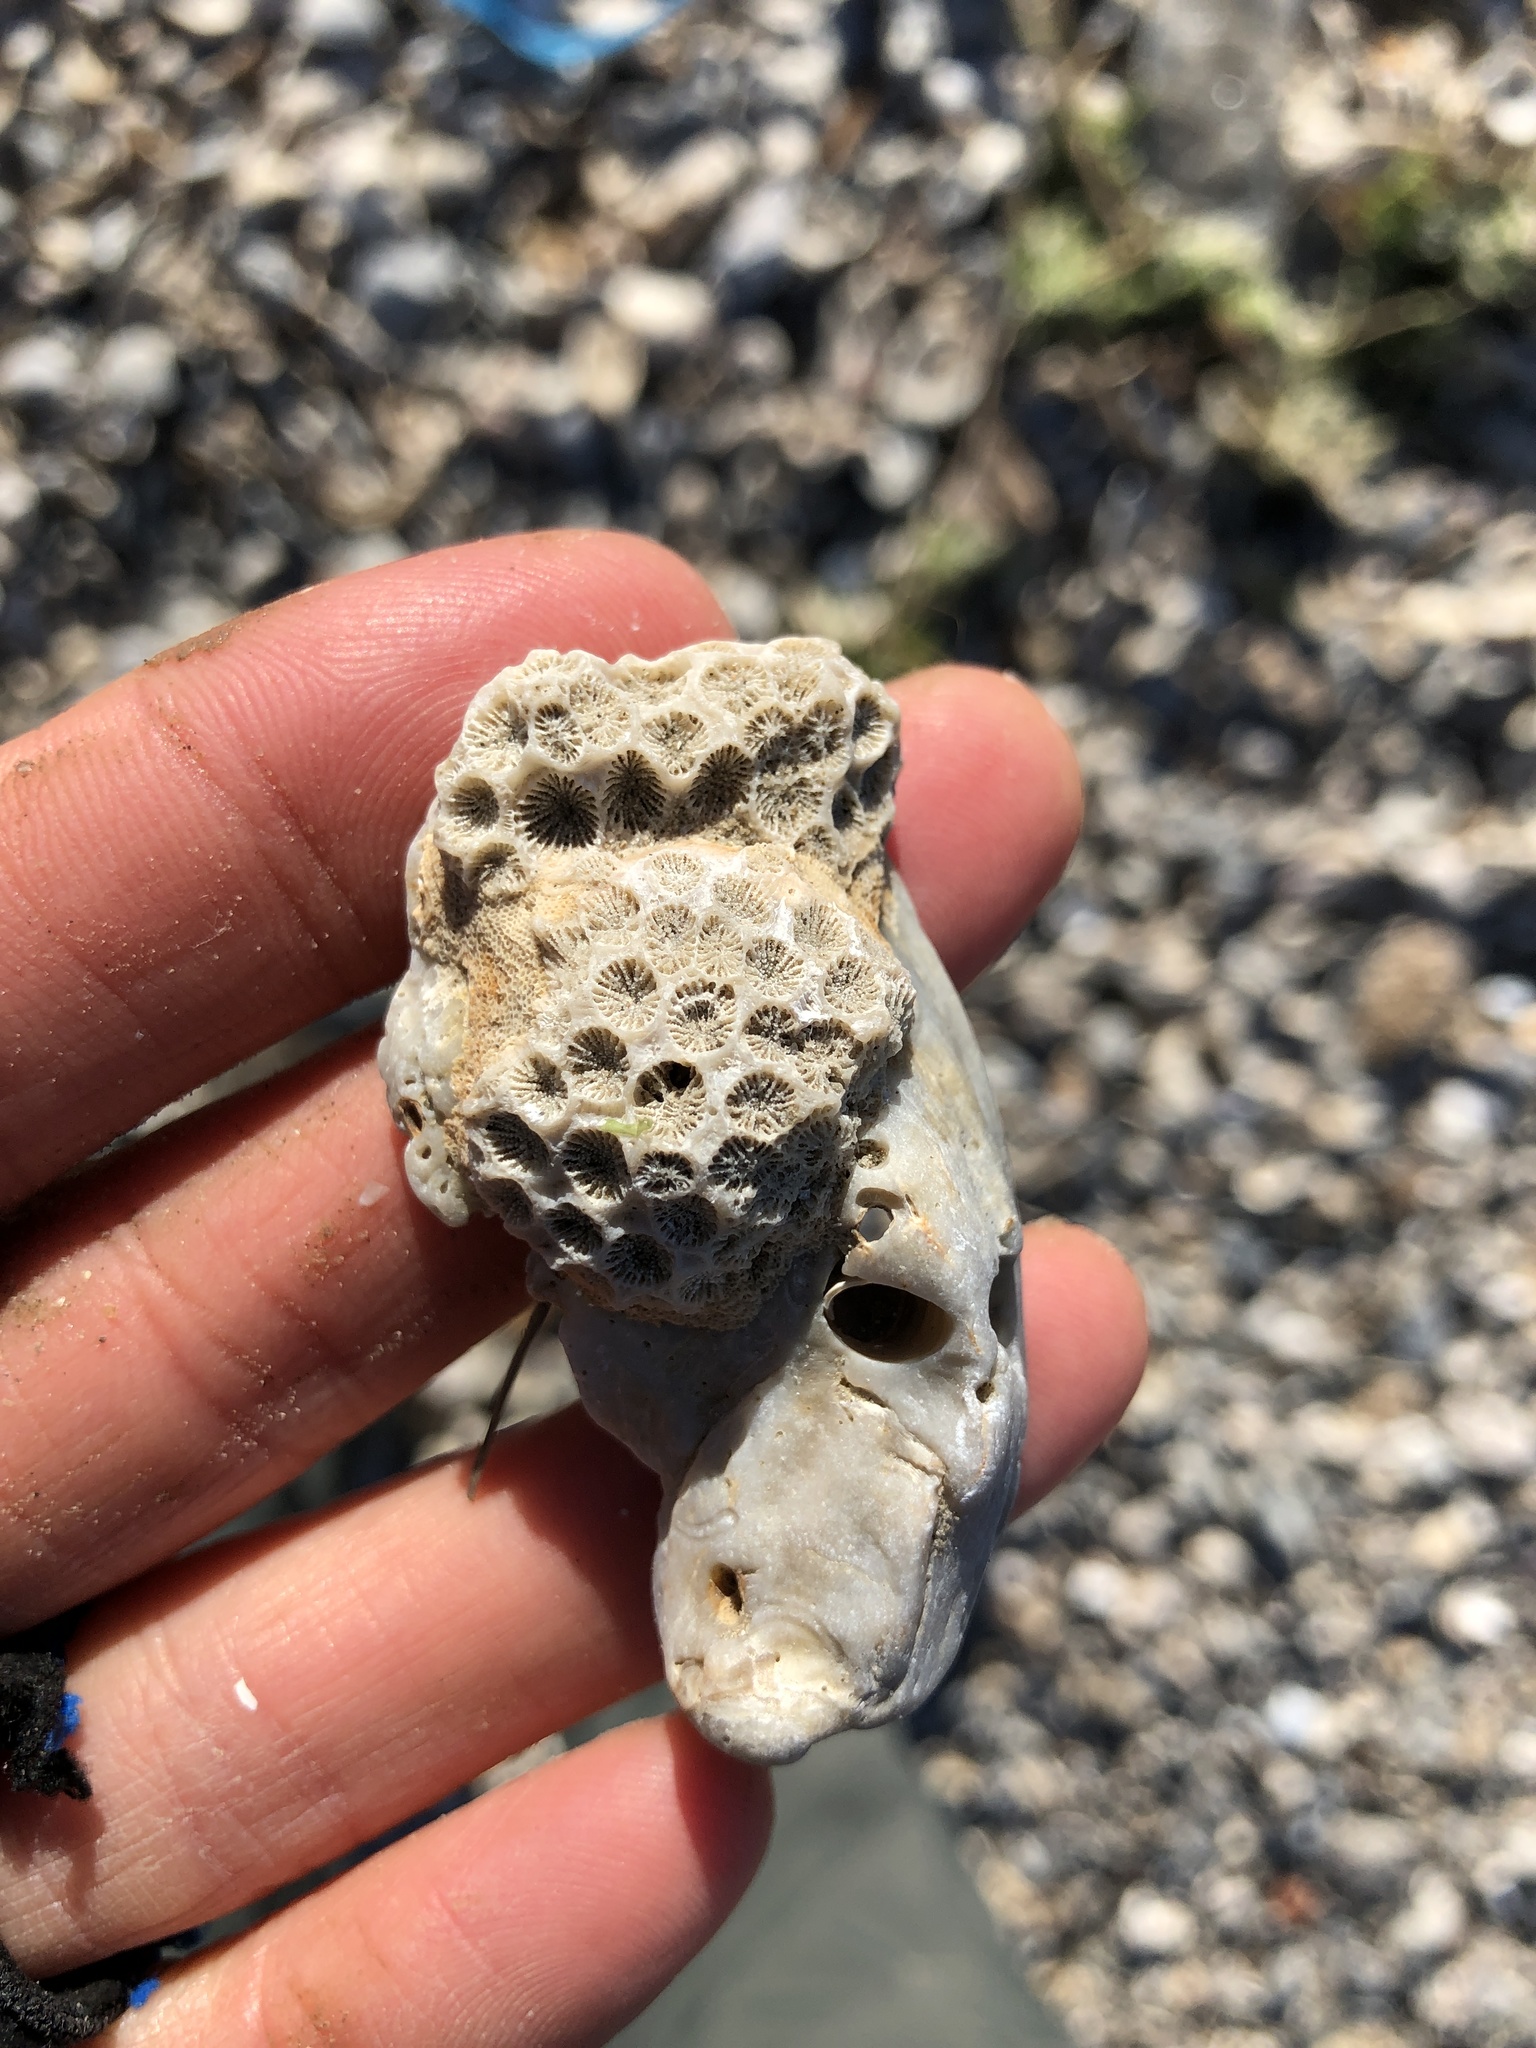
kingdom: Animalia
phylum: Cnidaria
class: Anthozoa
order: Scleractinia
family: Astrangiidae
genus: Astrangia
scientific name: Astrangia poculata
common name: Northern star coral
